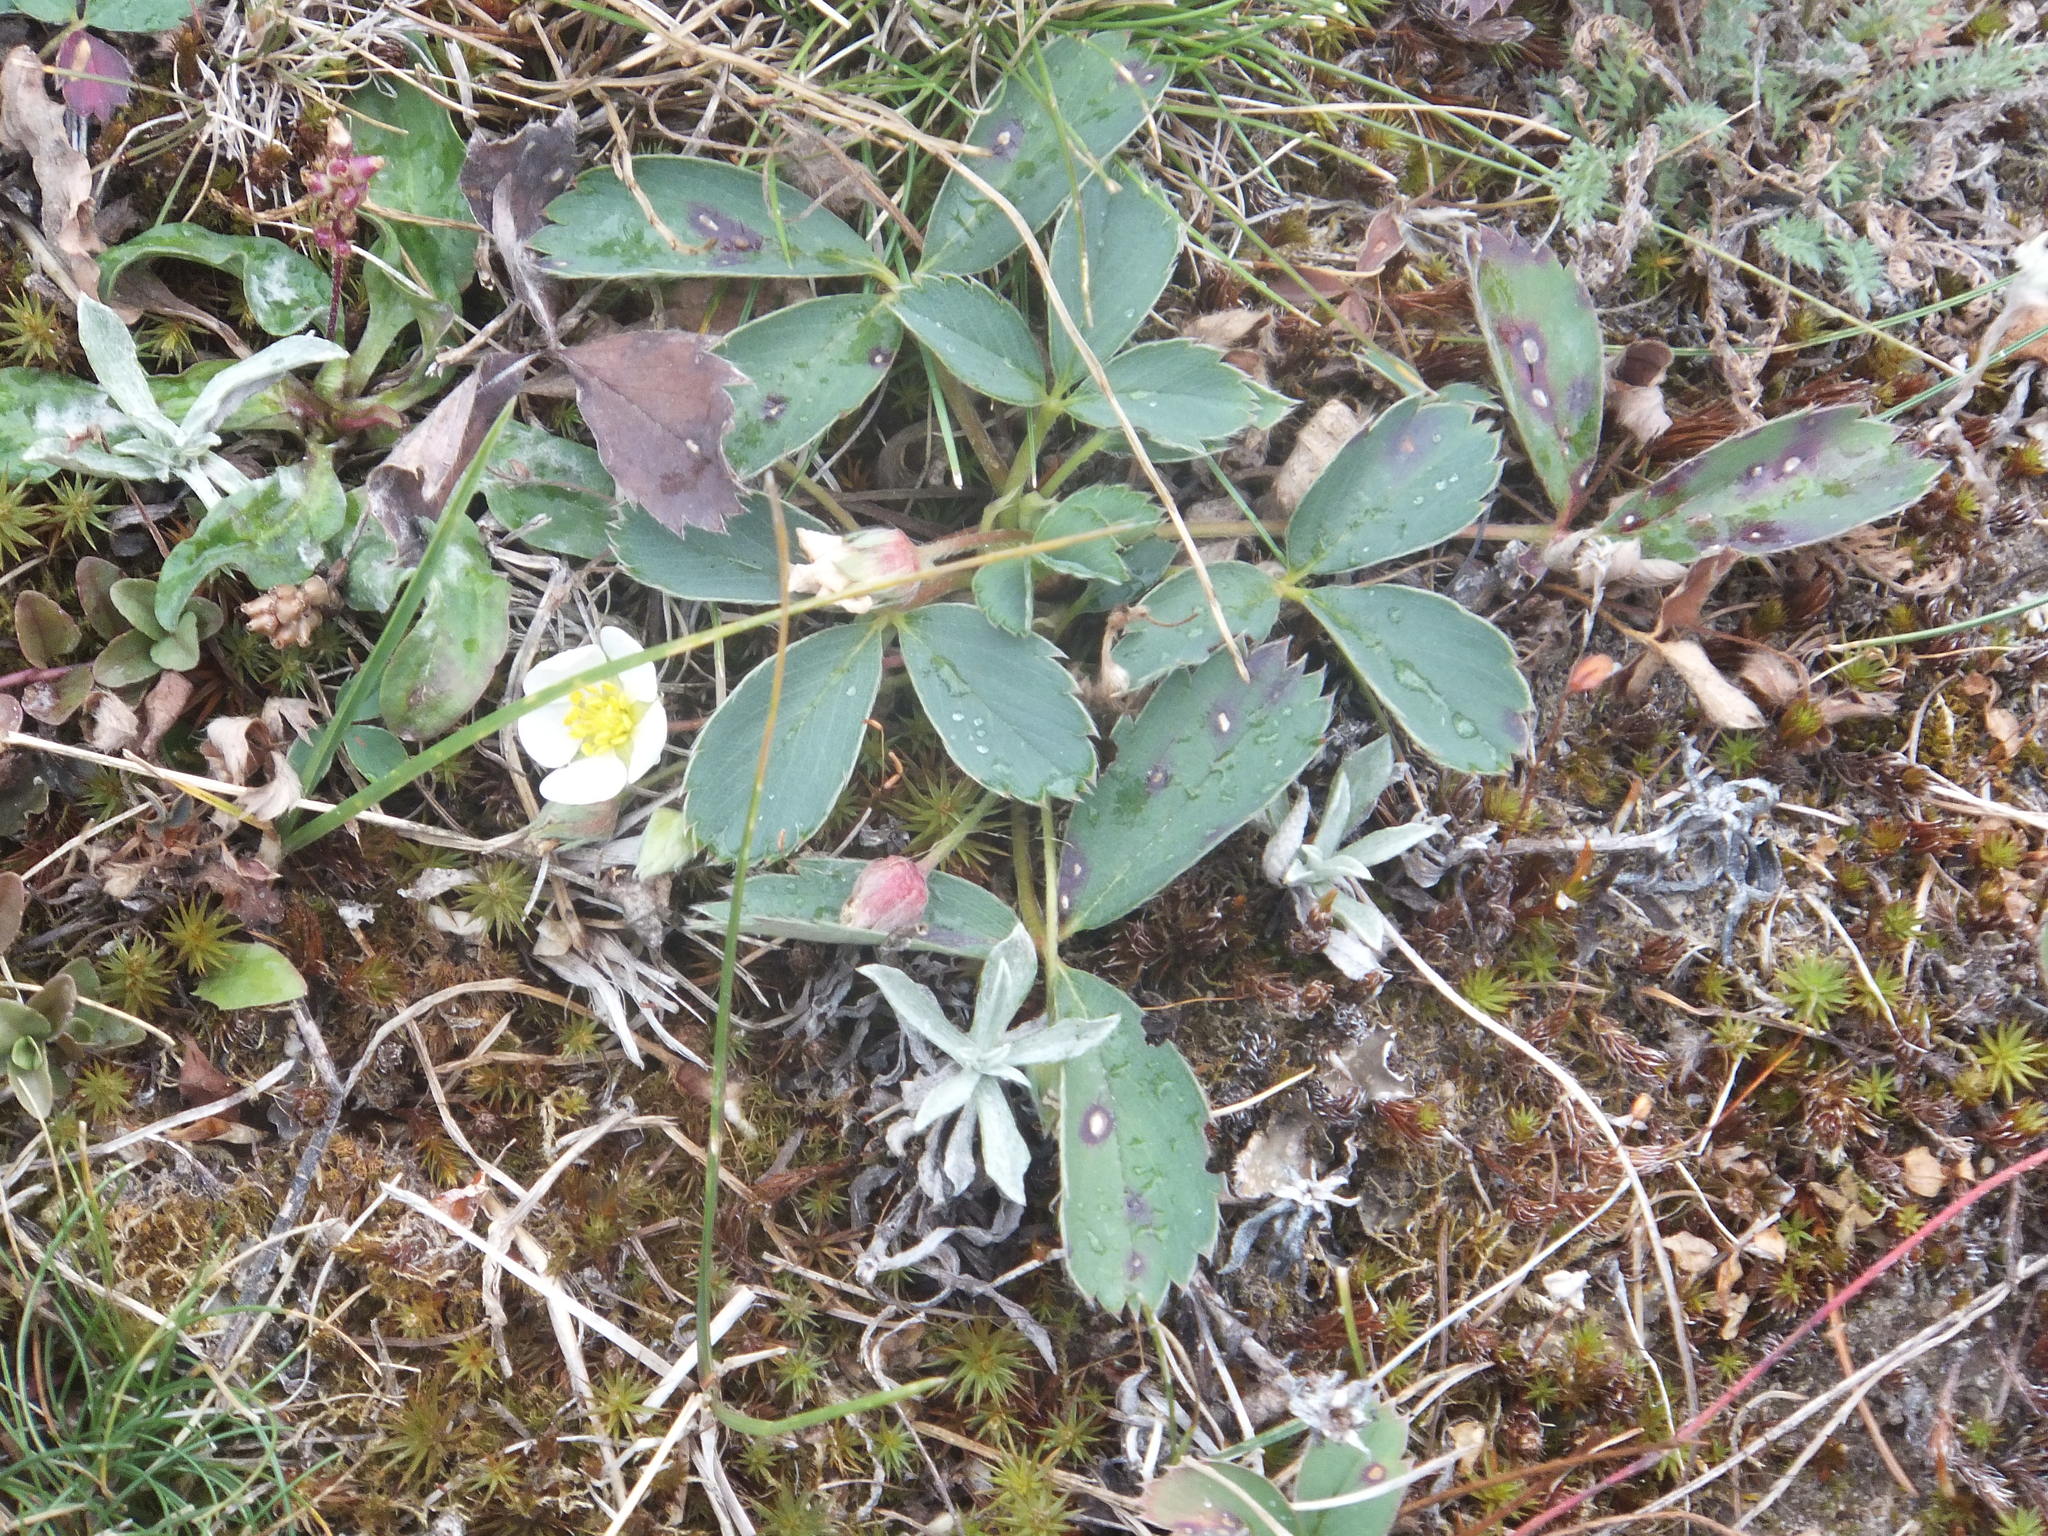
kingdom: Plantae
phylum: Tracheophyta
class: Magnoliopsida
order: Rosales
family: Rosaceae
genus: Fragaria
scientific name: Fragaria virginiana
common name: Thickleaved wild strawberry
